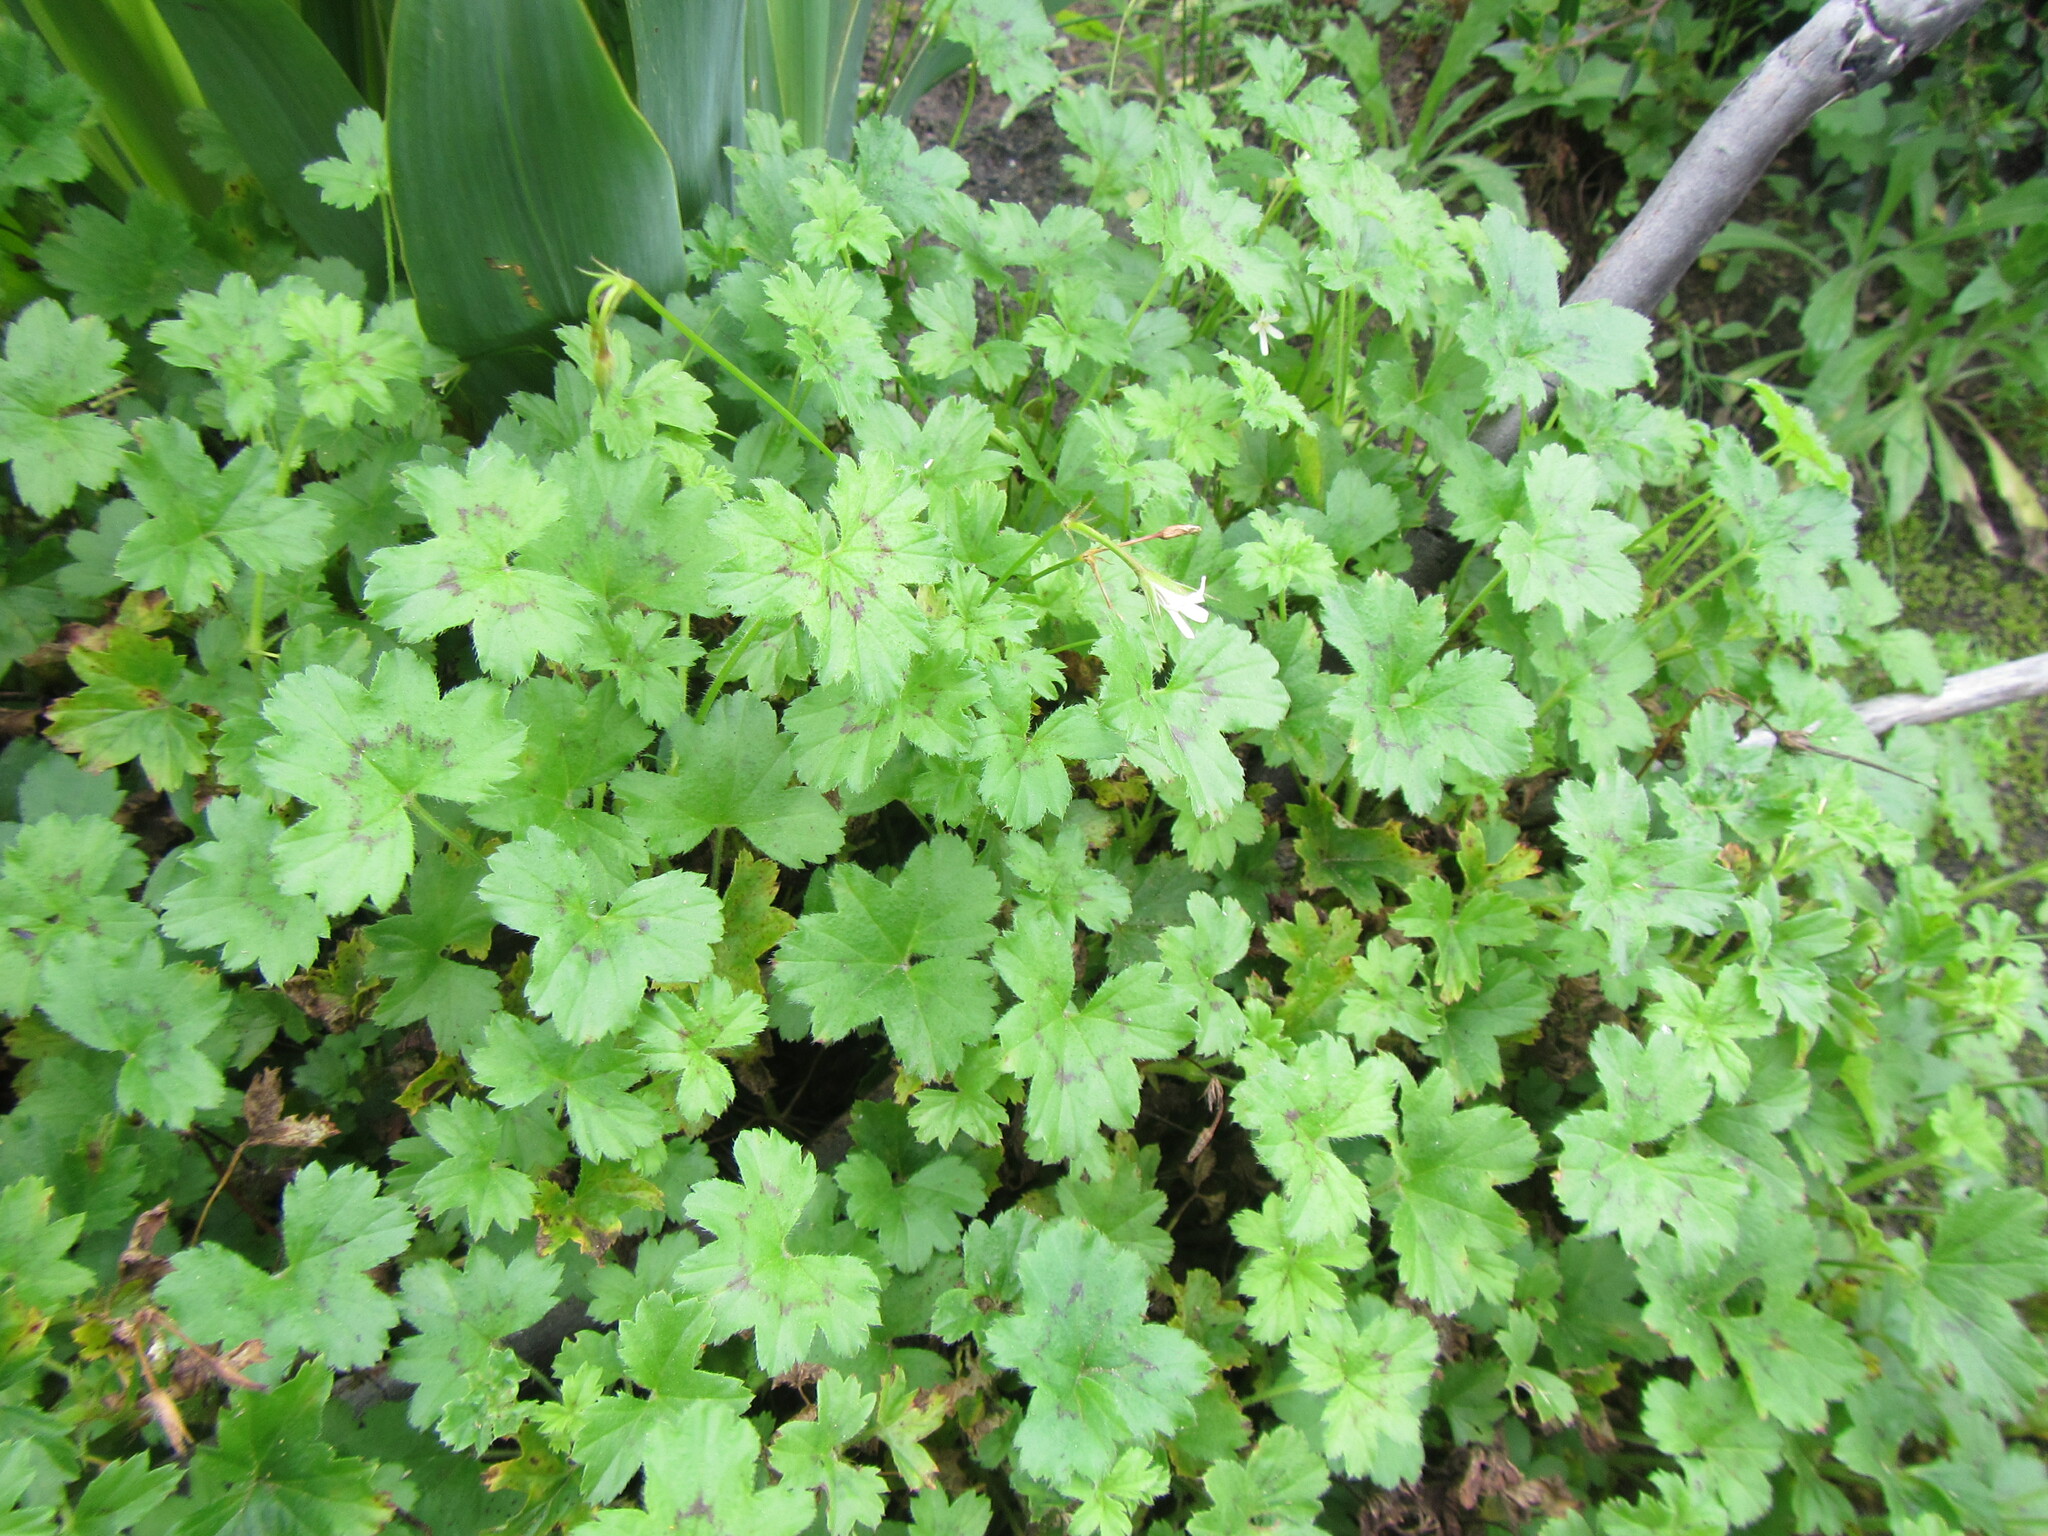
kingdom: Plantae
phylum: Tracheophyta
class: Magnoliopsida
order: Geraniales
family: Geraniaceae
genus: Pelargonium
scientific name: Pelargonium elongatum
